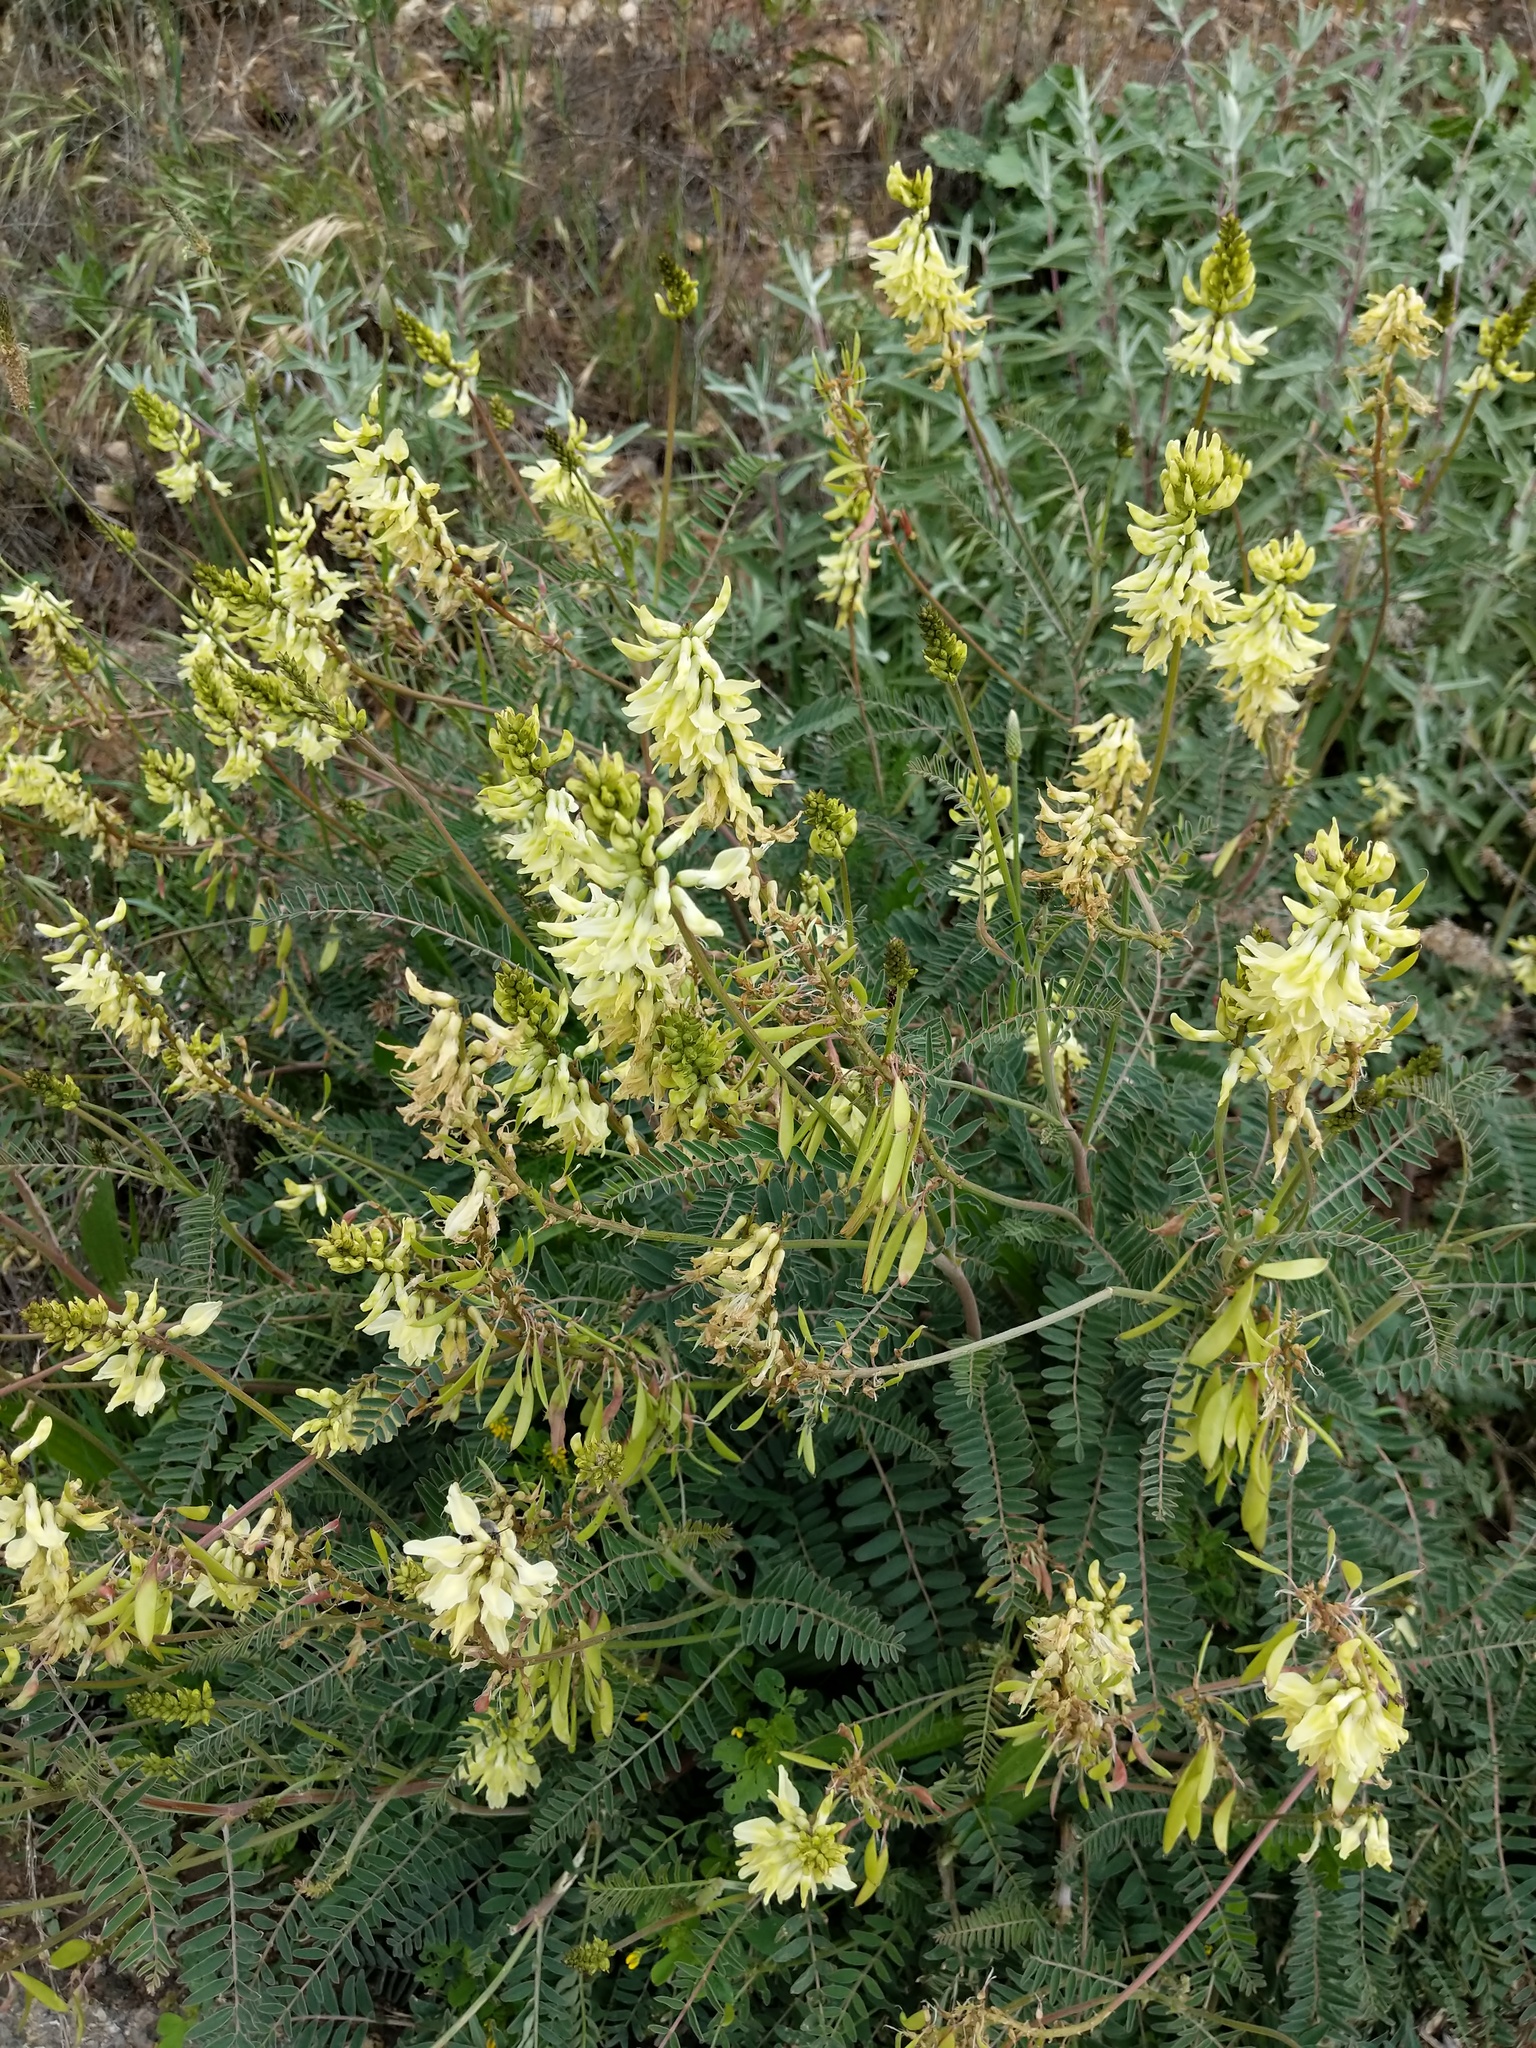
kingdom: Plantae
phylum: Tracheophyta
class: Magnoliopsida
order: Fabales
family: Fabaceae
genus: Astragalus
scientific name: Astragalus trichopodus
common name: Santa barbara milk-vetch
